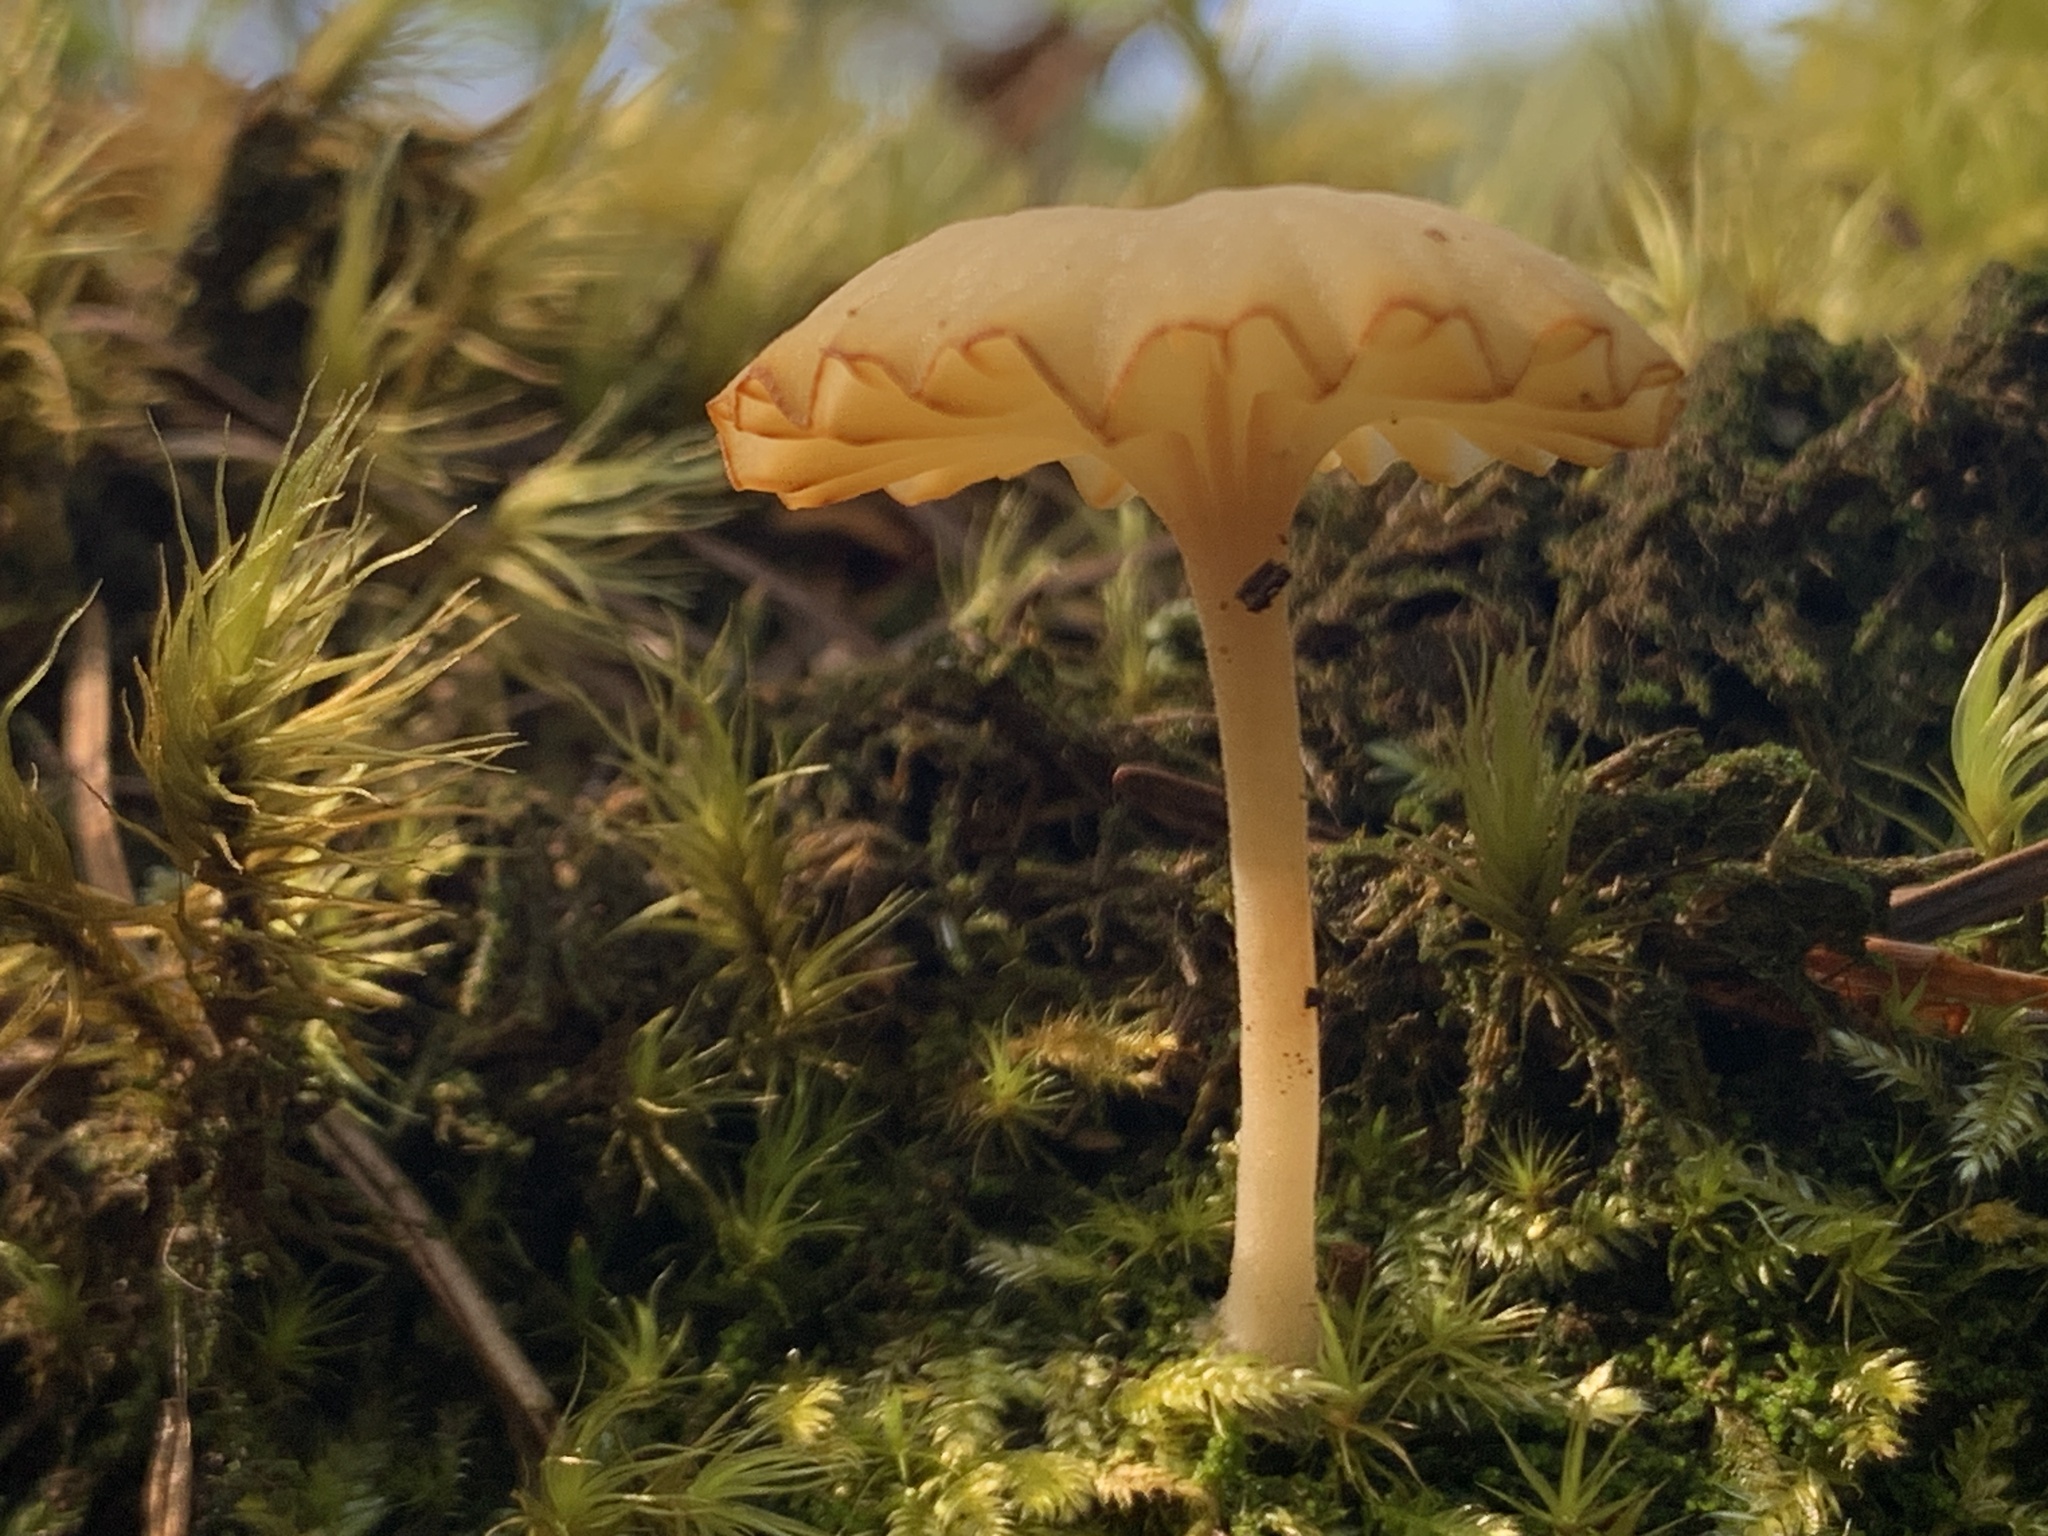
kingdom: Fungi
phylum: Basidiomycota
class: Agaricomycetes
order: Agaricales
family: Hygrophoraceae
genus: Lichenomphalia
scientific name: Lichenomphalia
